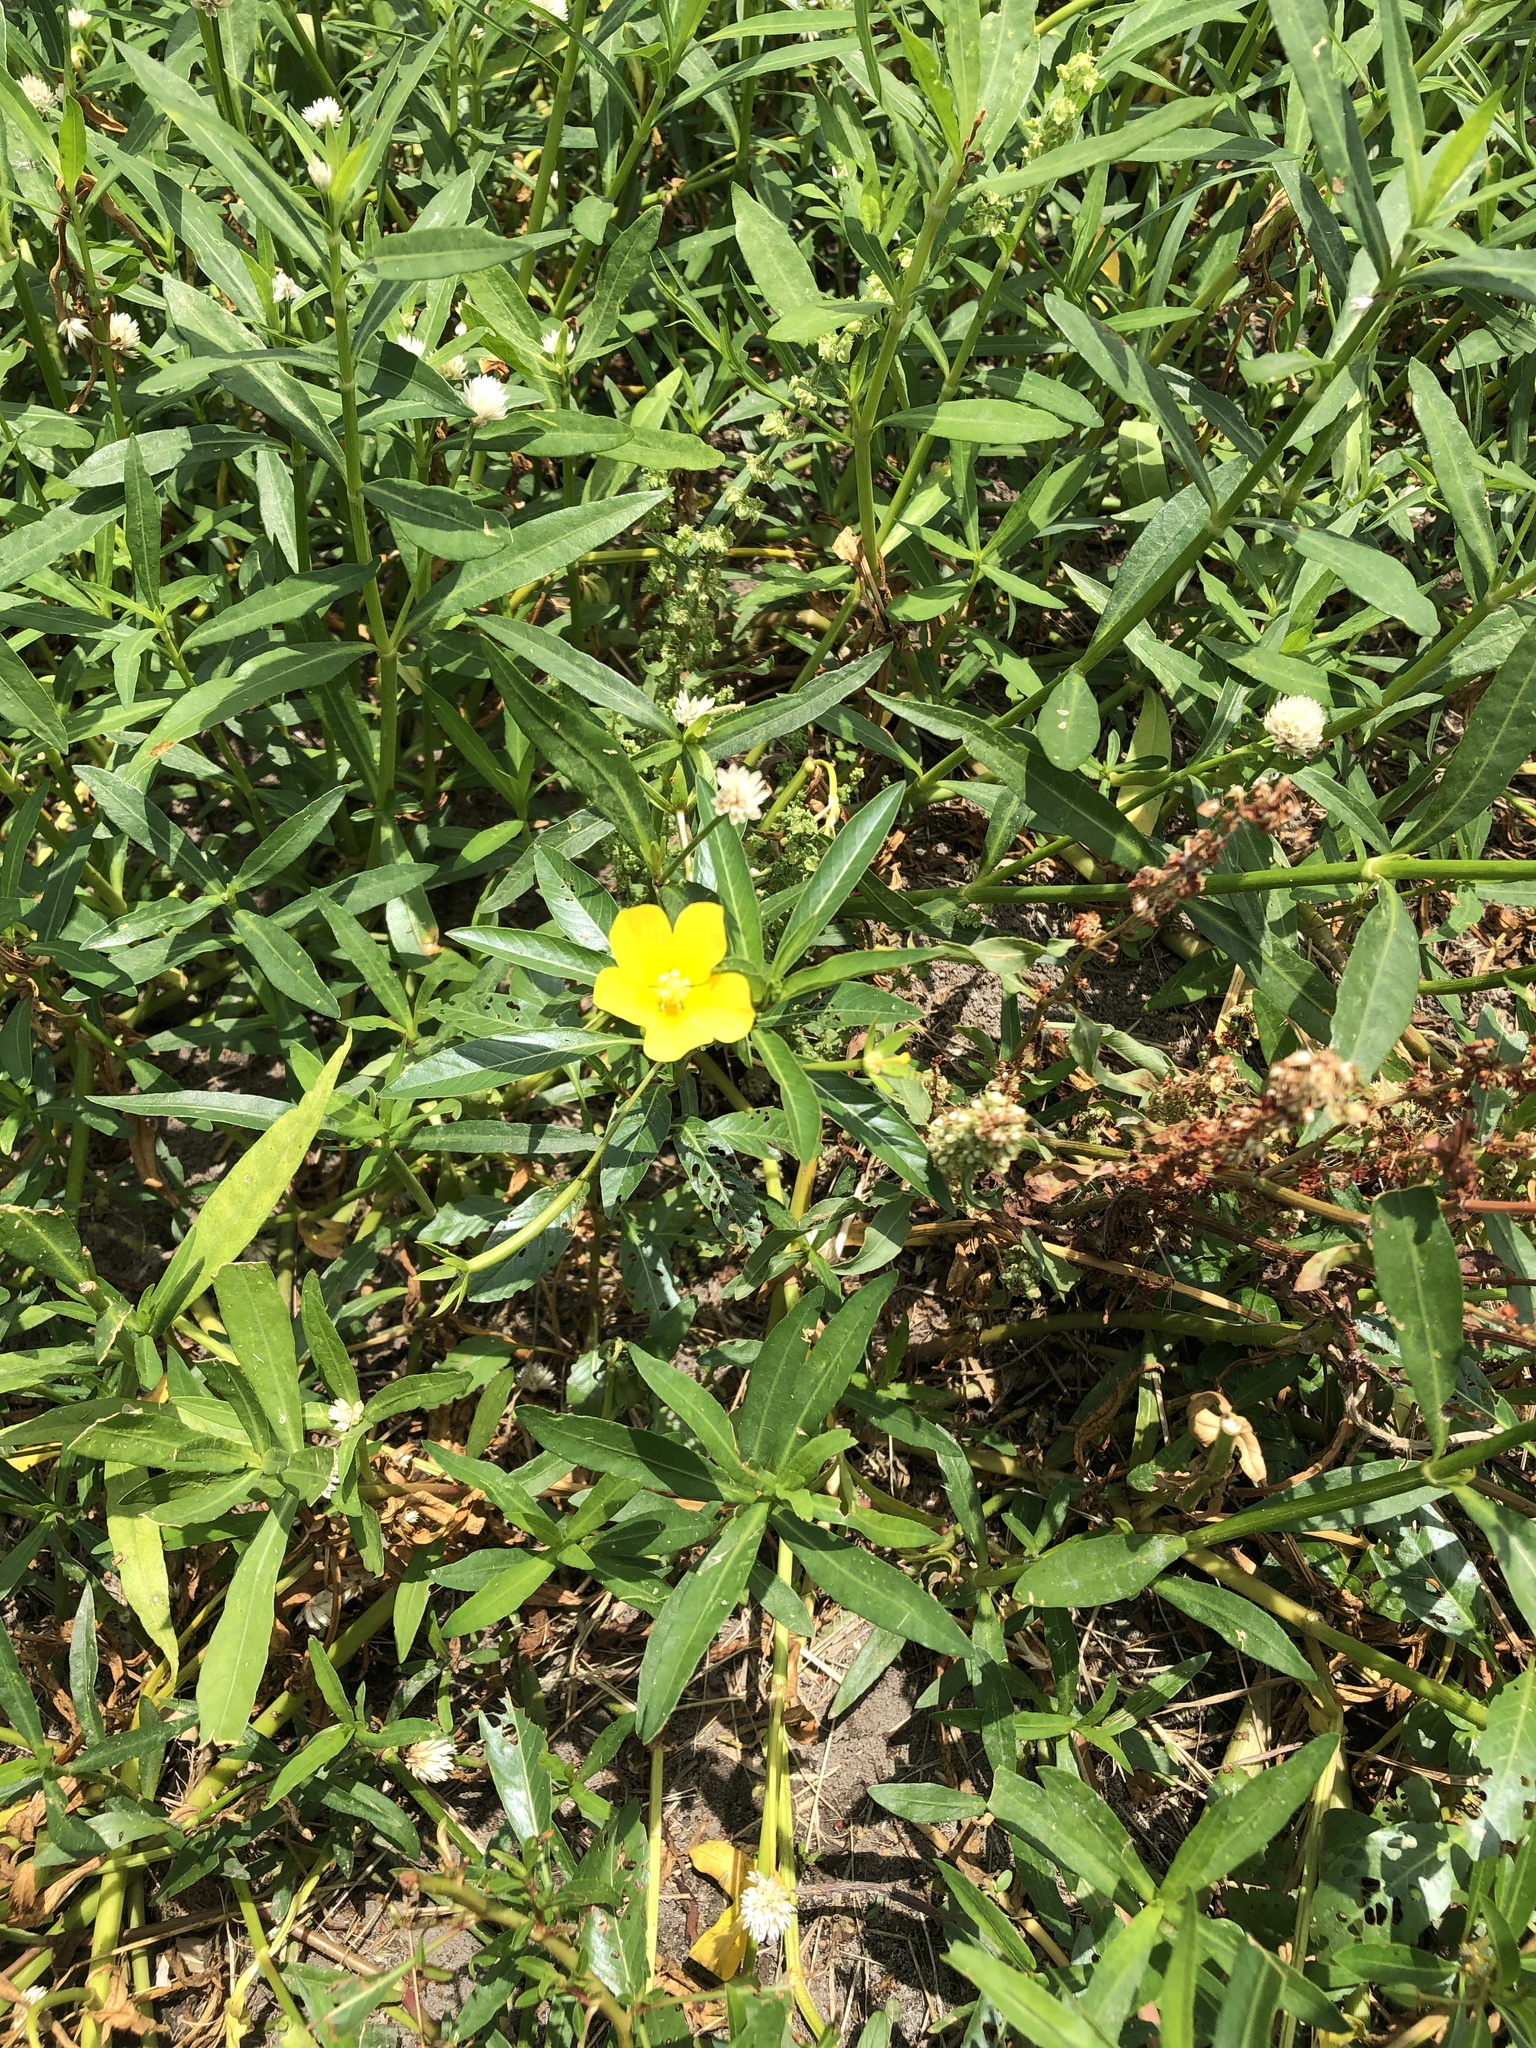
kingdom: Plantae
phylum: Tracheophyta
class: Magnoliopsida
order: Myrtales
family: Onagraceae
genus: Ludwigia
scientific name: Ludwigia peploides
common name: Floating primrose-willow
